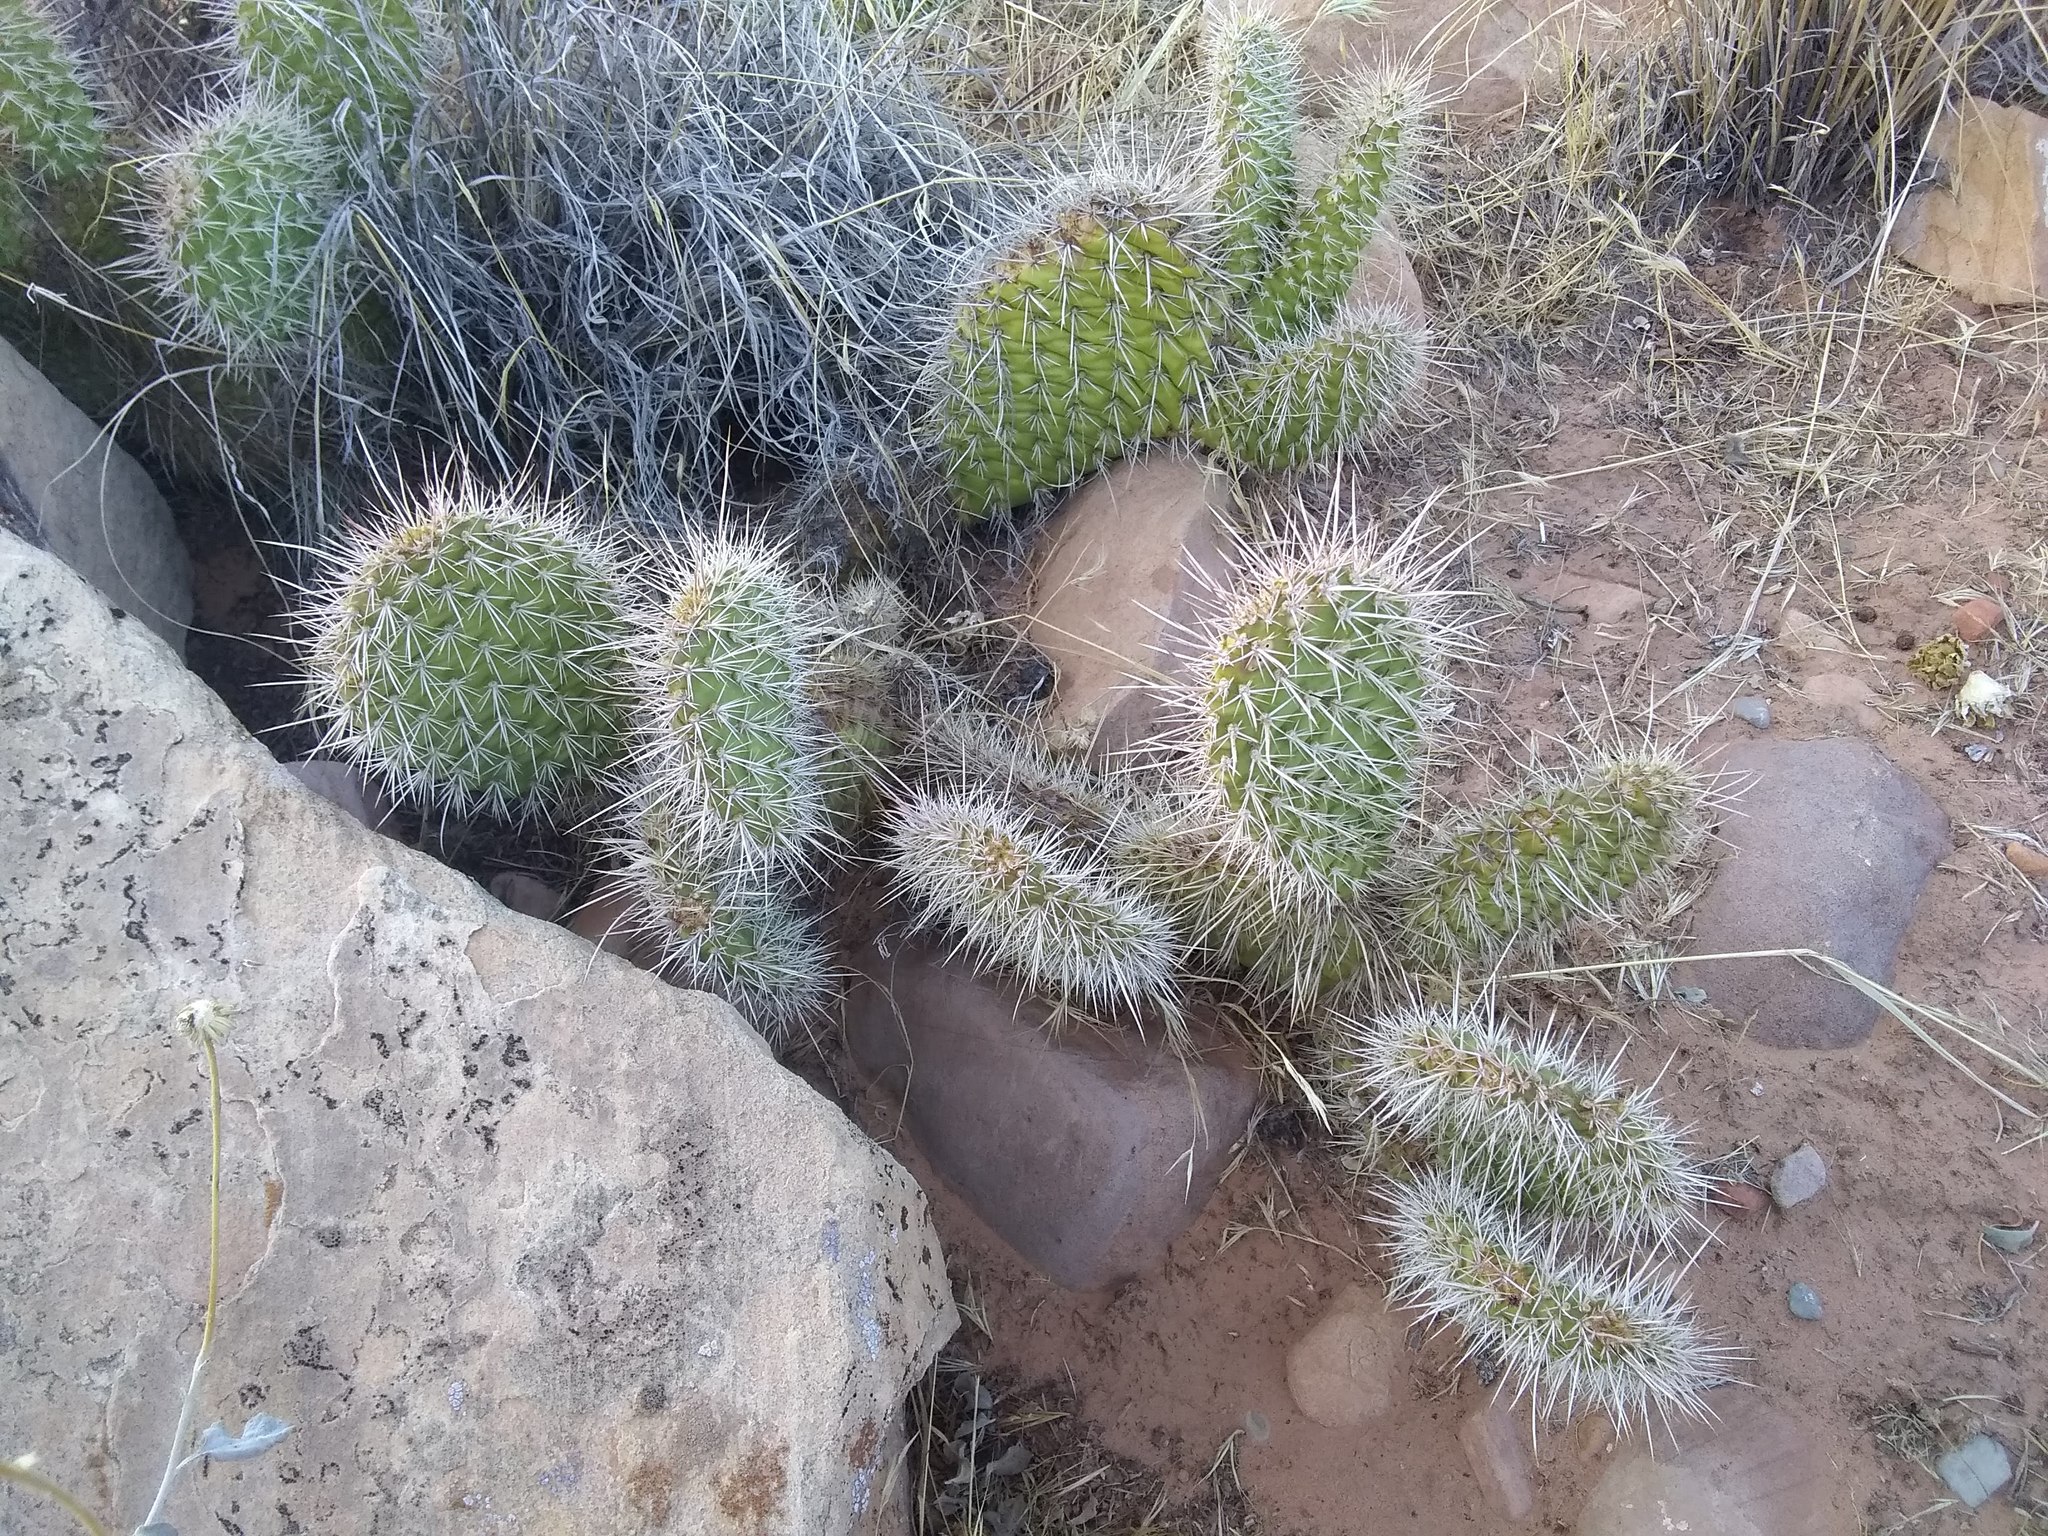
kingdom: Plantae
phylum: Tracheophyta
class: Magnoliopsida
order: Caryophyllales
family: Cactaceae
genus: Opuntia
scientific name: Opuntia polyacantha
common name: Plains prickly-pear
